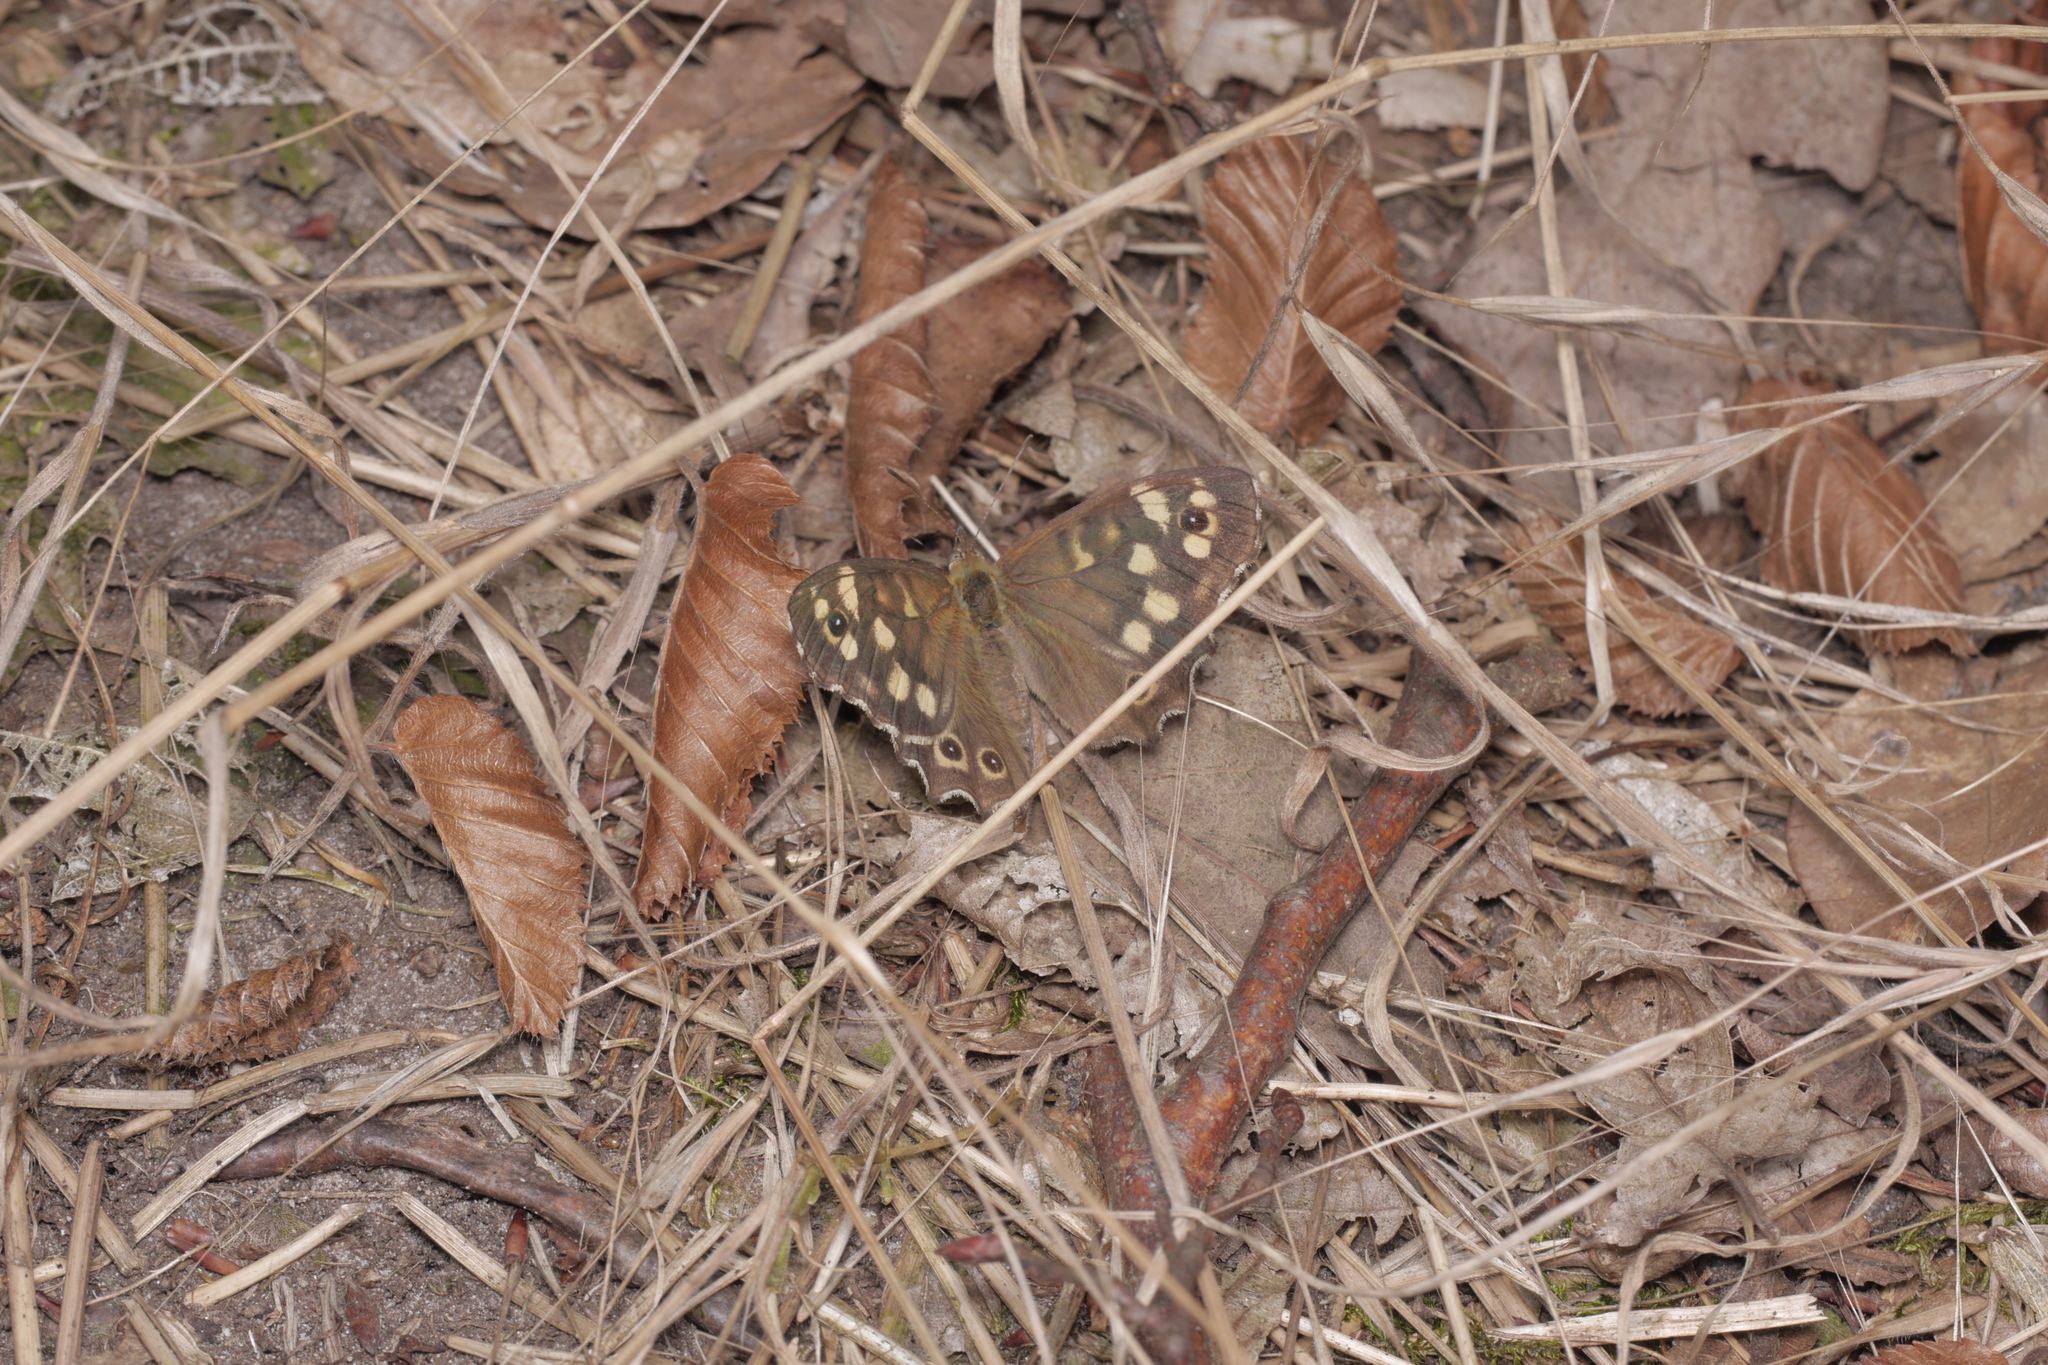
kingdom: Animalia
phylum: Arthropoda
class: Insecta
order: Lepidoptera
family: Nymphalidae
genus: Pararge
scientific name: Pararge aegeria
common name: Speckled wood
